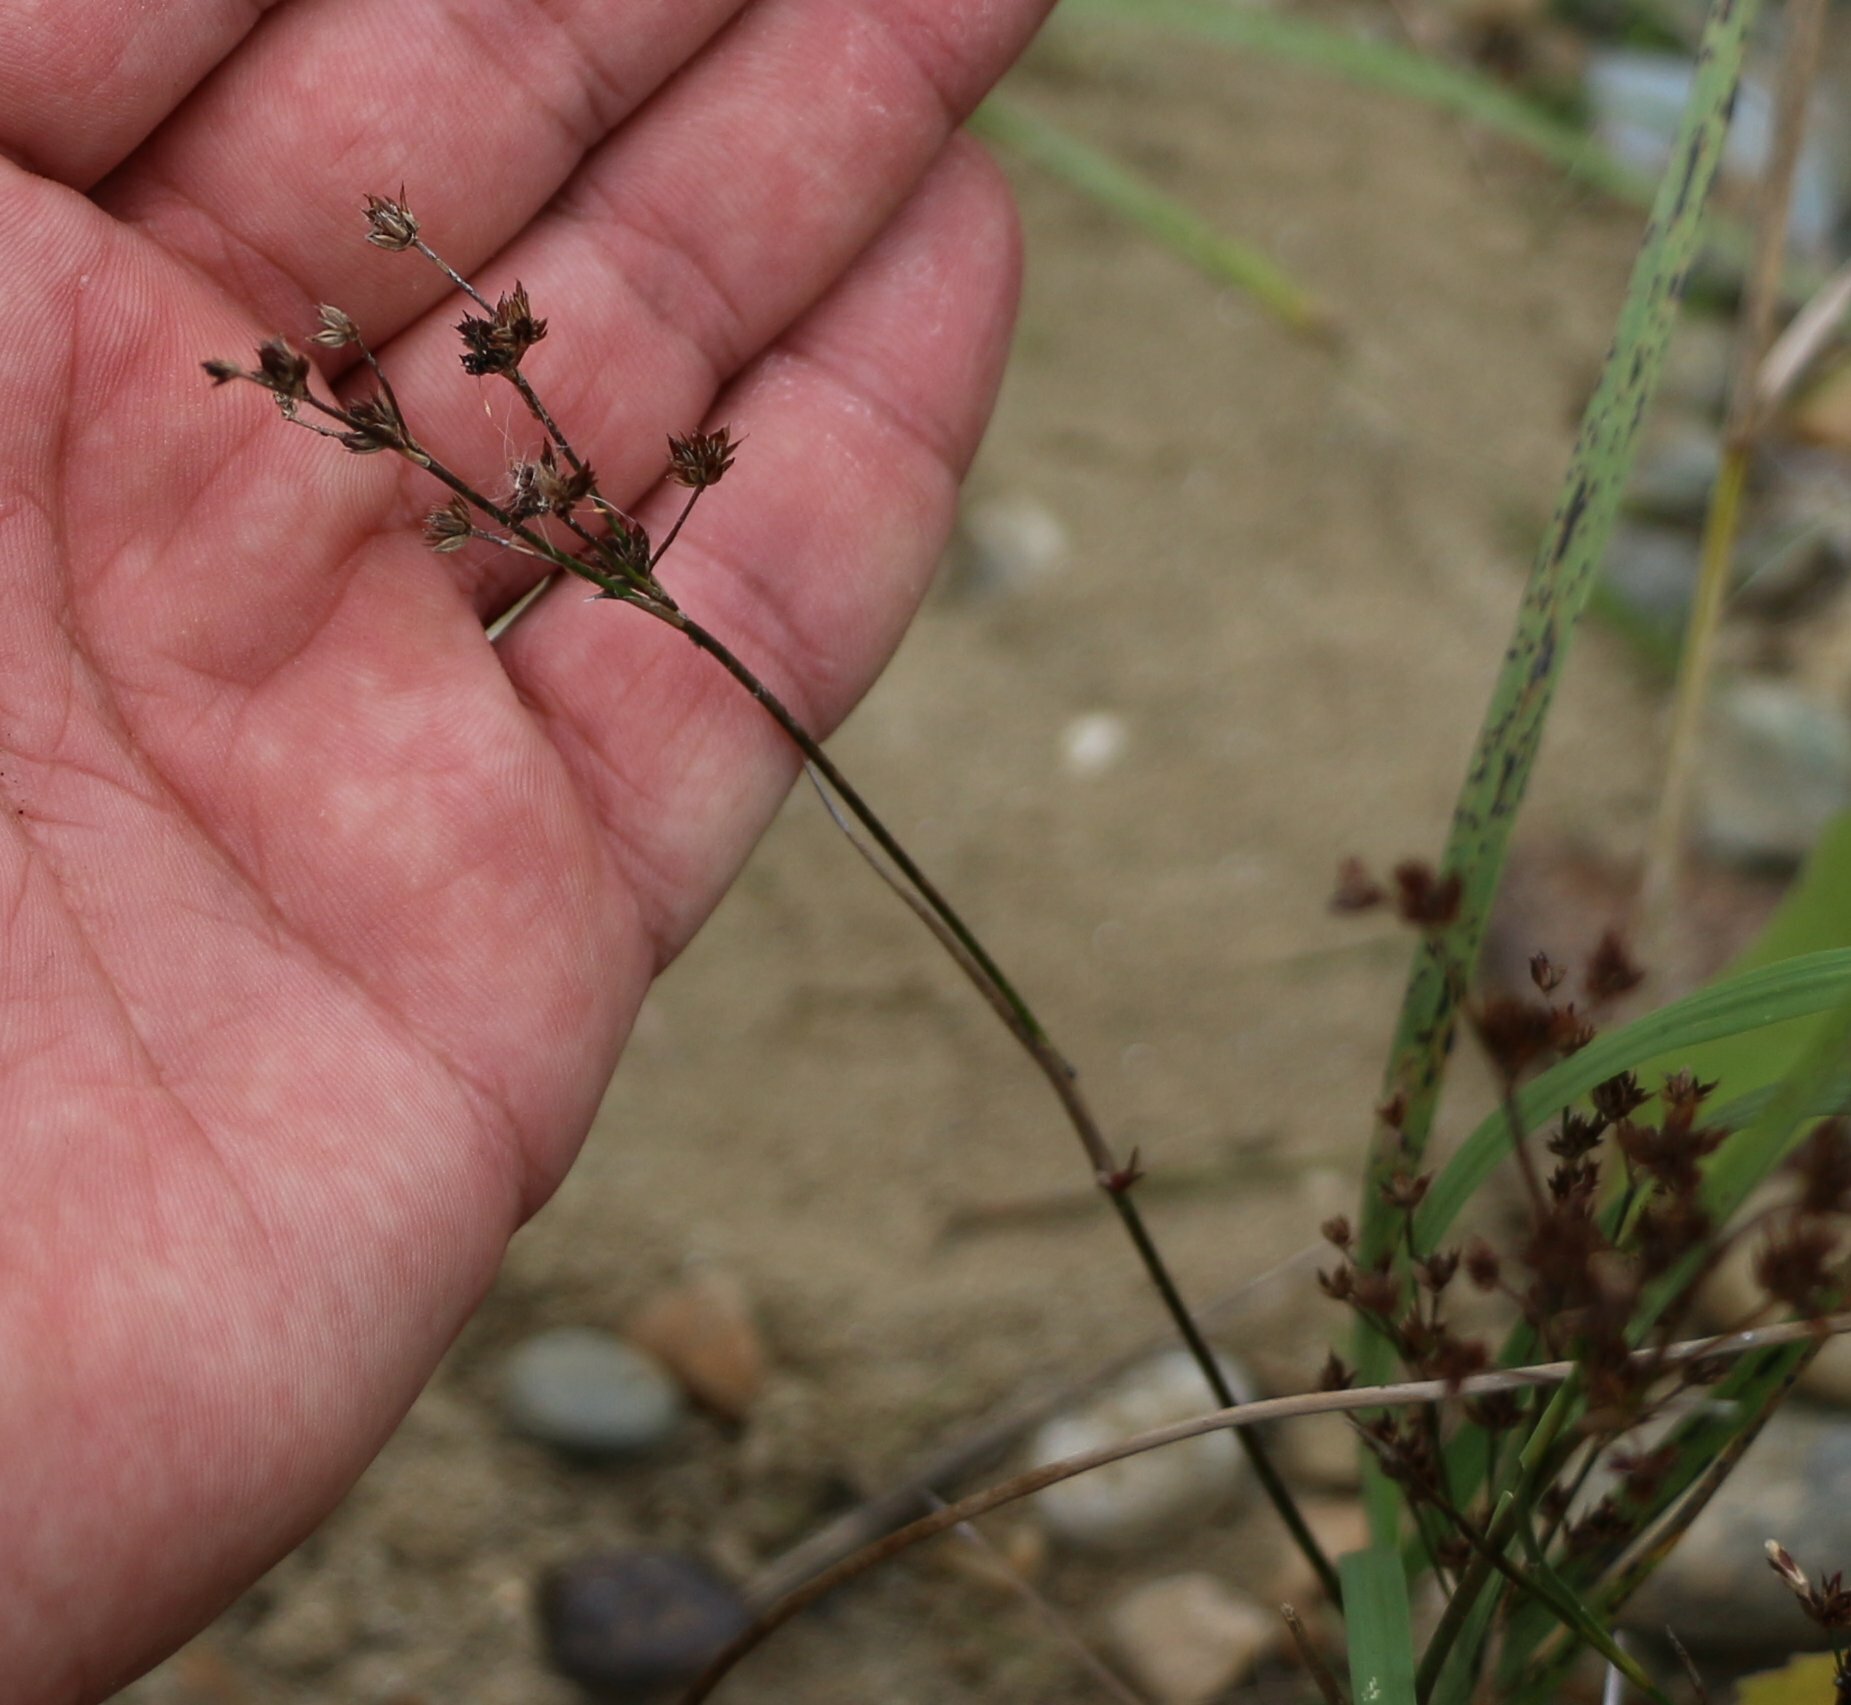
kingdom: Plantae
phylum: Tracheophyta
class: Liliopsida
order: Poales
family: Juncaceae
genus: Juncus
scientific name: Juncus articulatus
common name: Jointed rush
